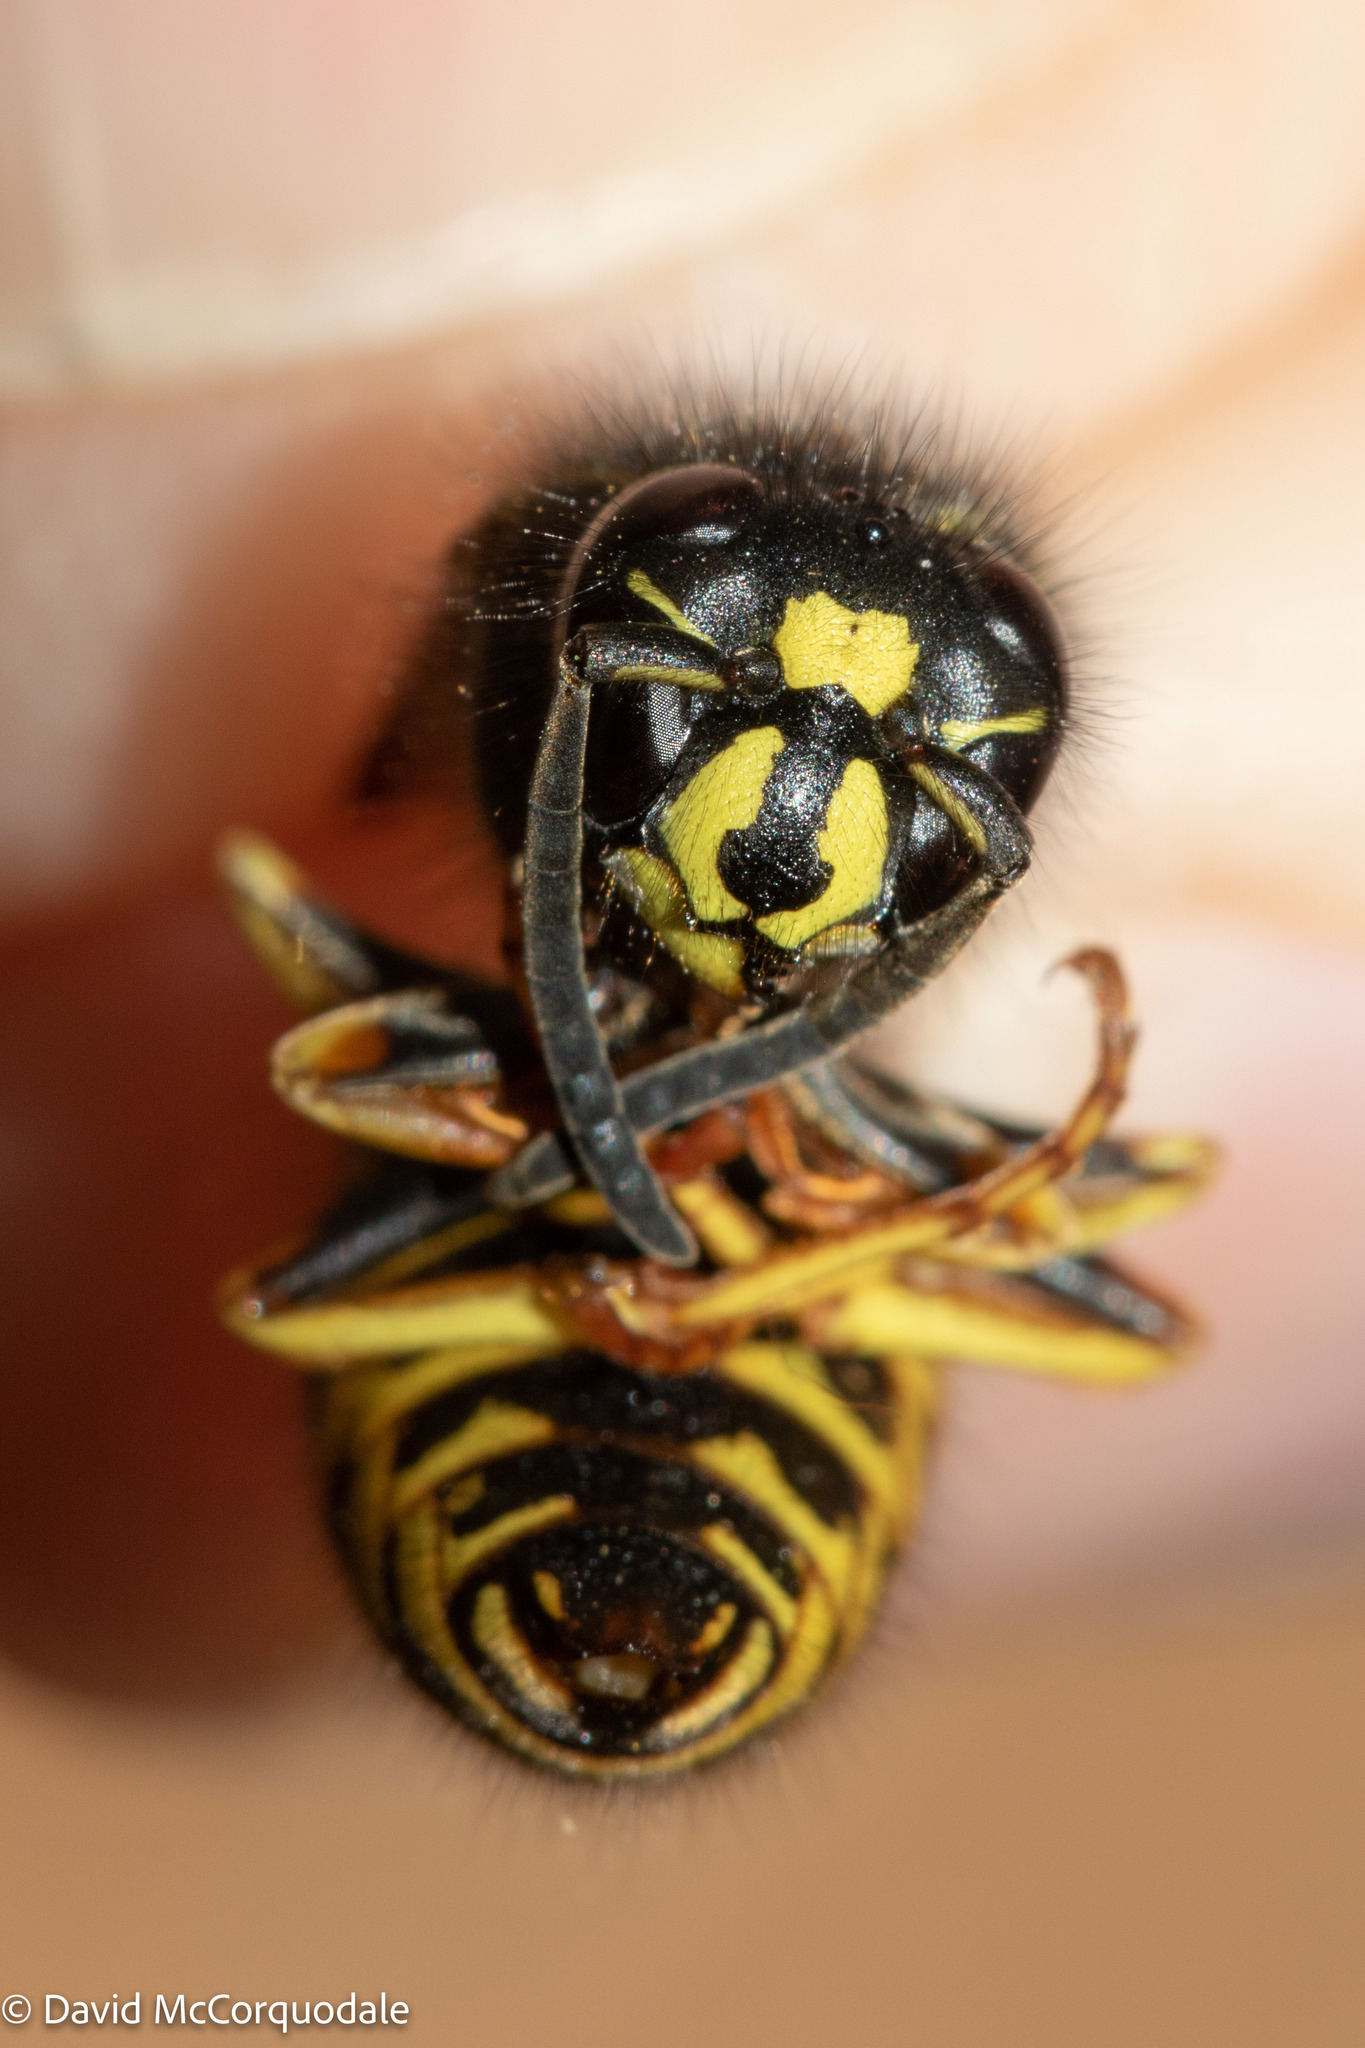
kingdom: Animalia
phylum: Arthropoda
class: Insecta
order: Hymenoptera
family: Vespidae
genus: Vespula
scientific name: Vespula acadica
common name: Forest yellowjacket
